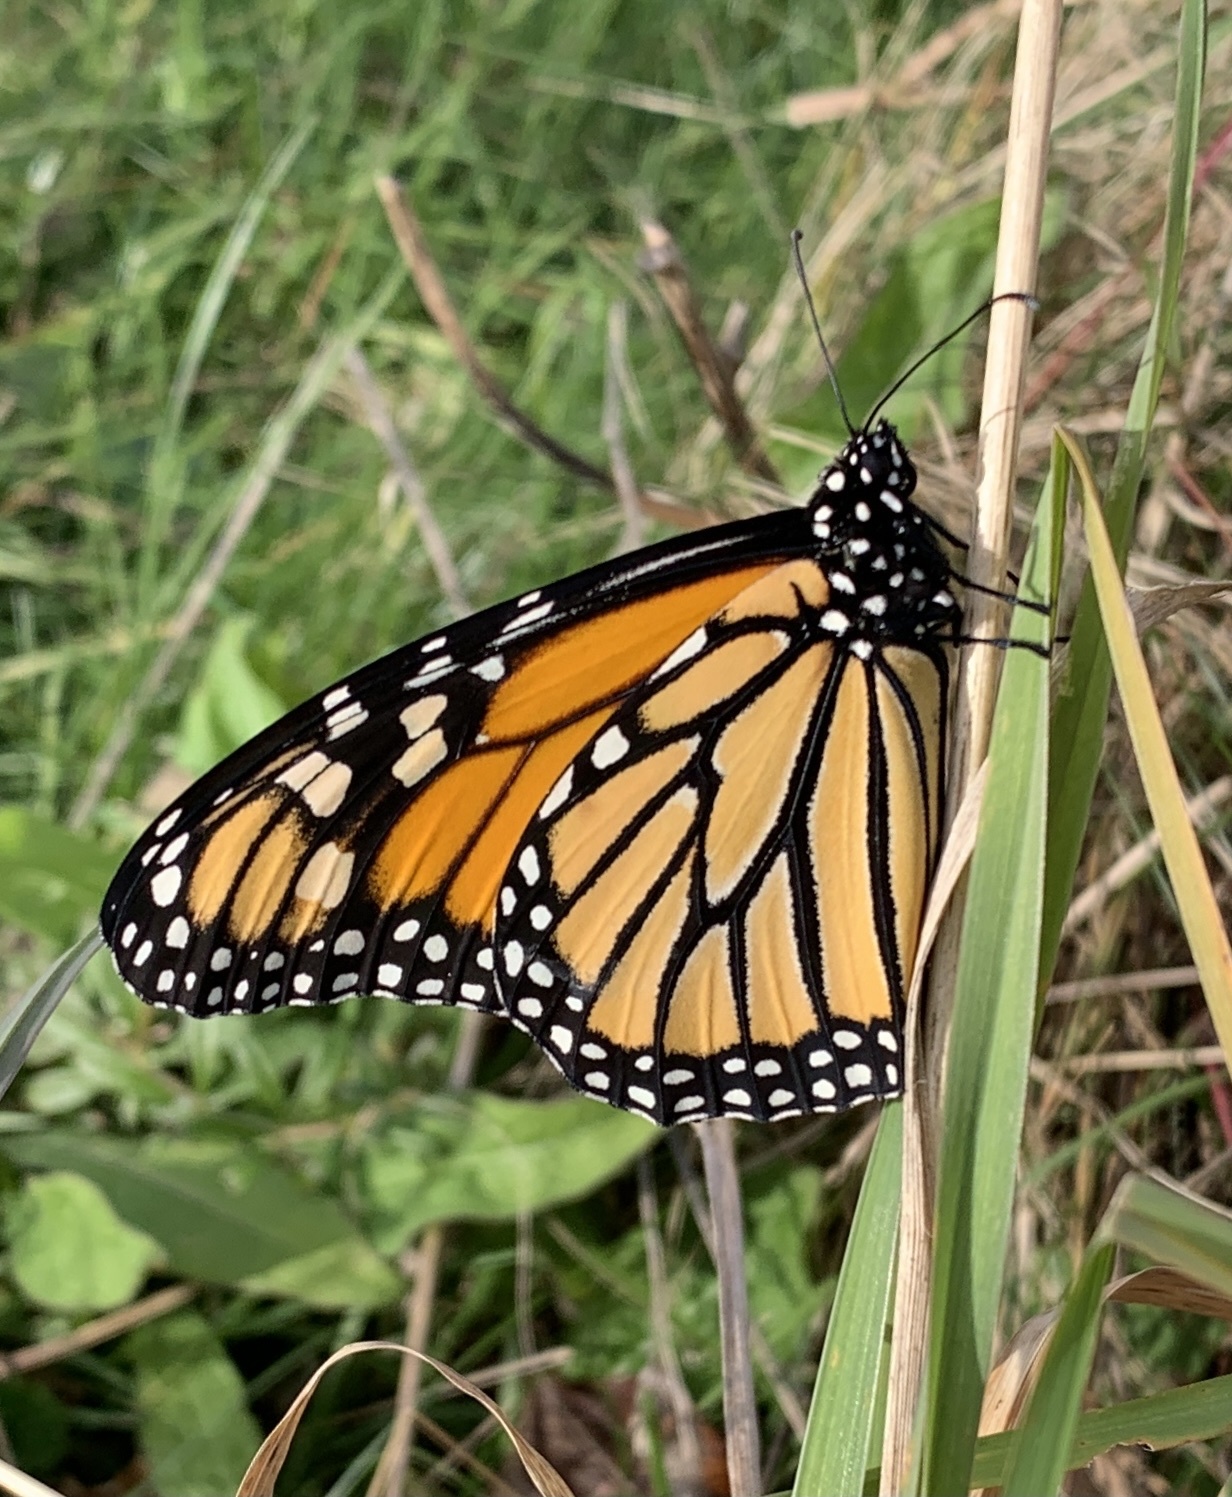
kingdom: Animalia
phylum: Arthropoda
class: Insecta
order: Lepidoptera
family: Nymphalidae
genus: Danaus
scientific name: Danaus plexippus
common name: Monarch
